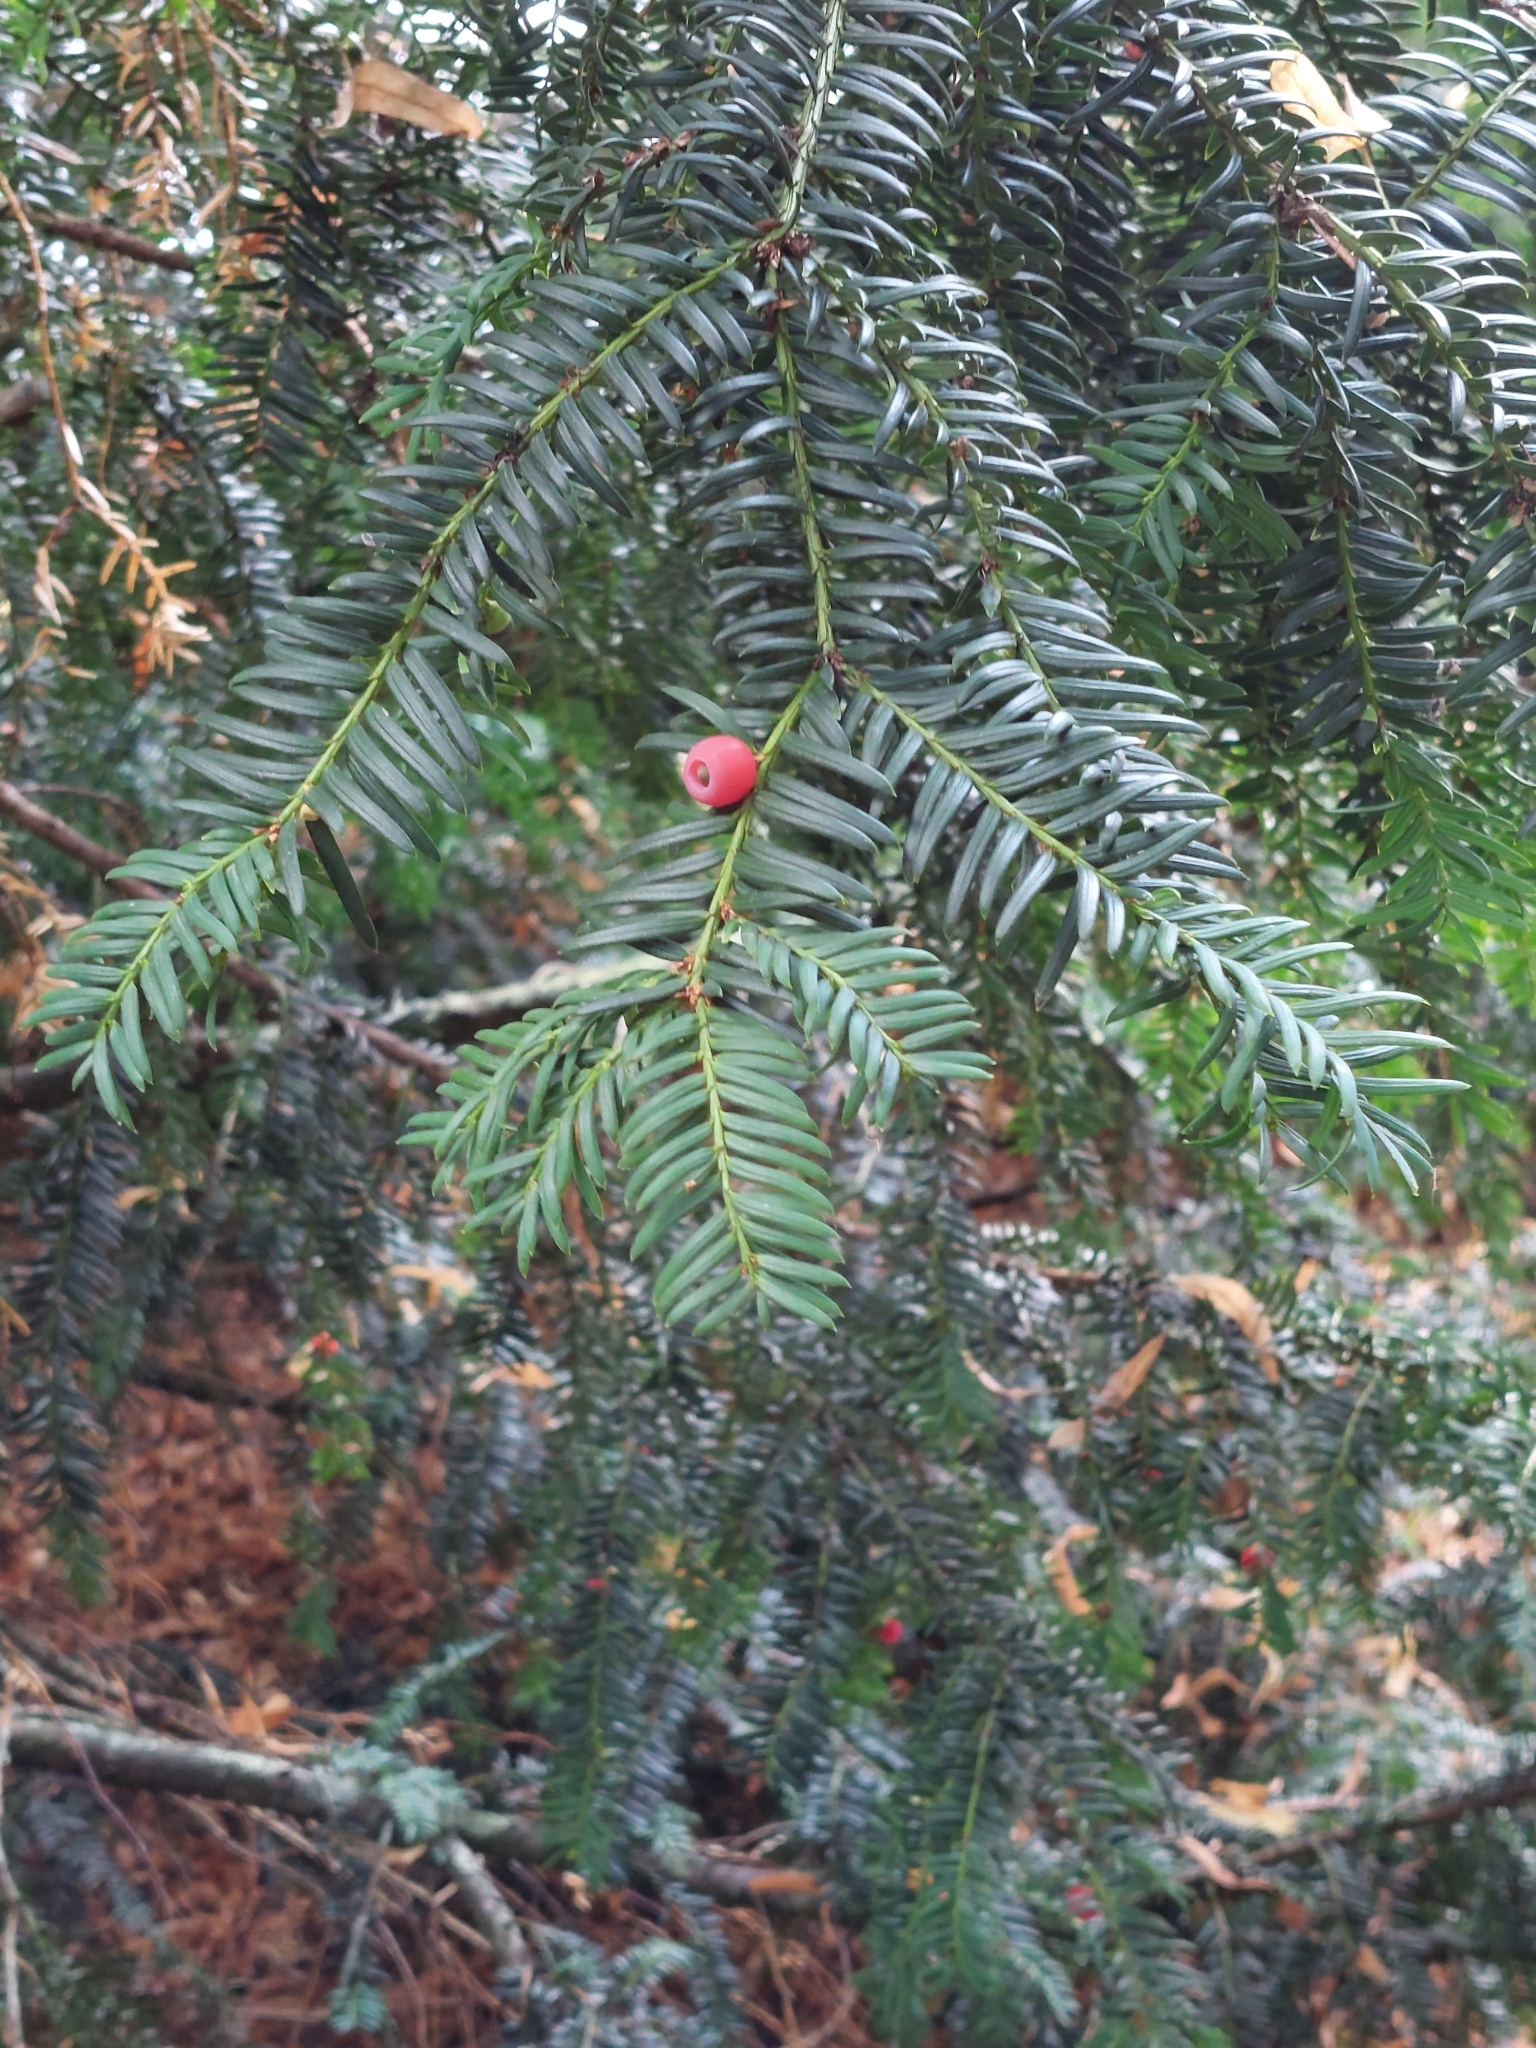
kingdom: Plantae
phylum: Tracheophyta
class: Pinopsida
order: Pinales
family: Taxaceae
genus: Taxus
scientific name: Taxus baccata
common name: Yew
